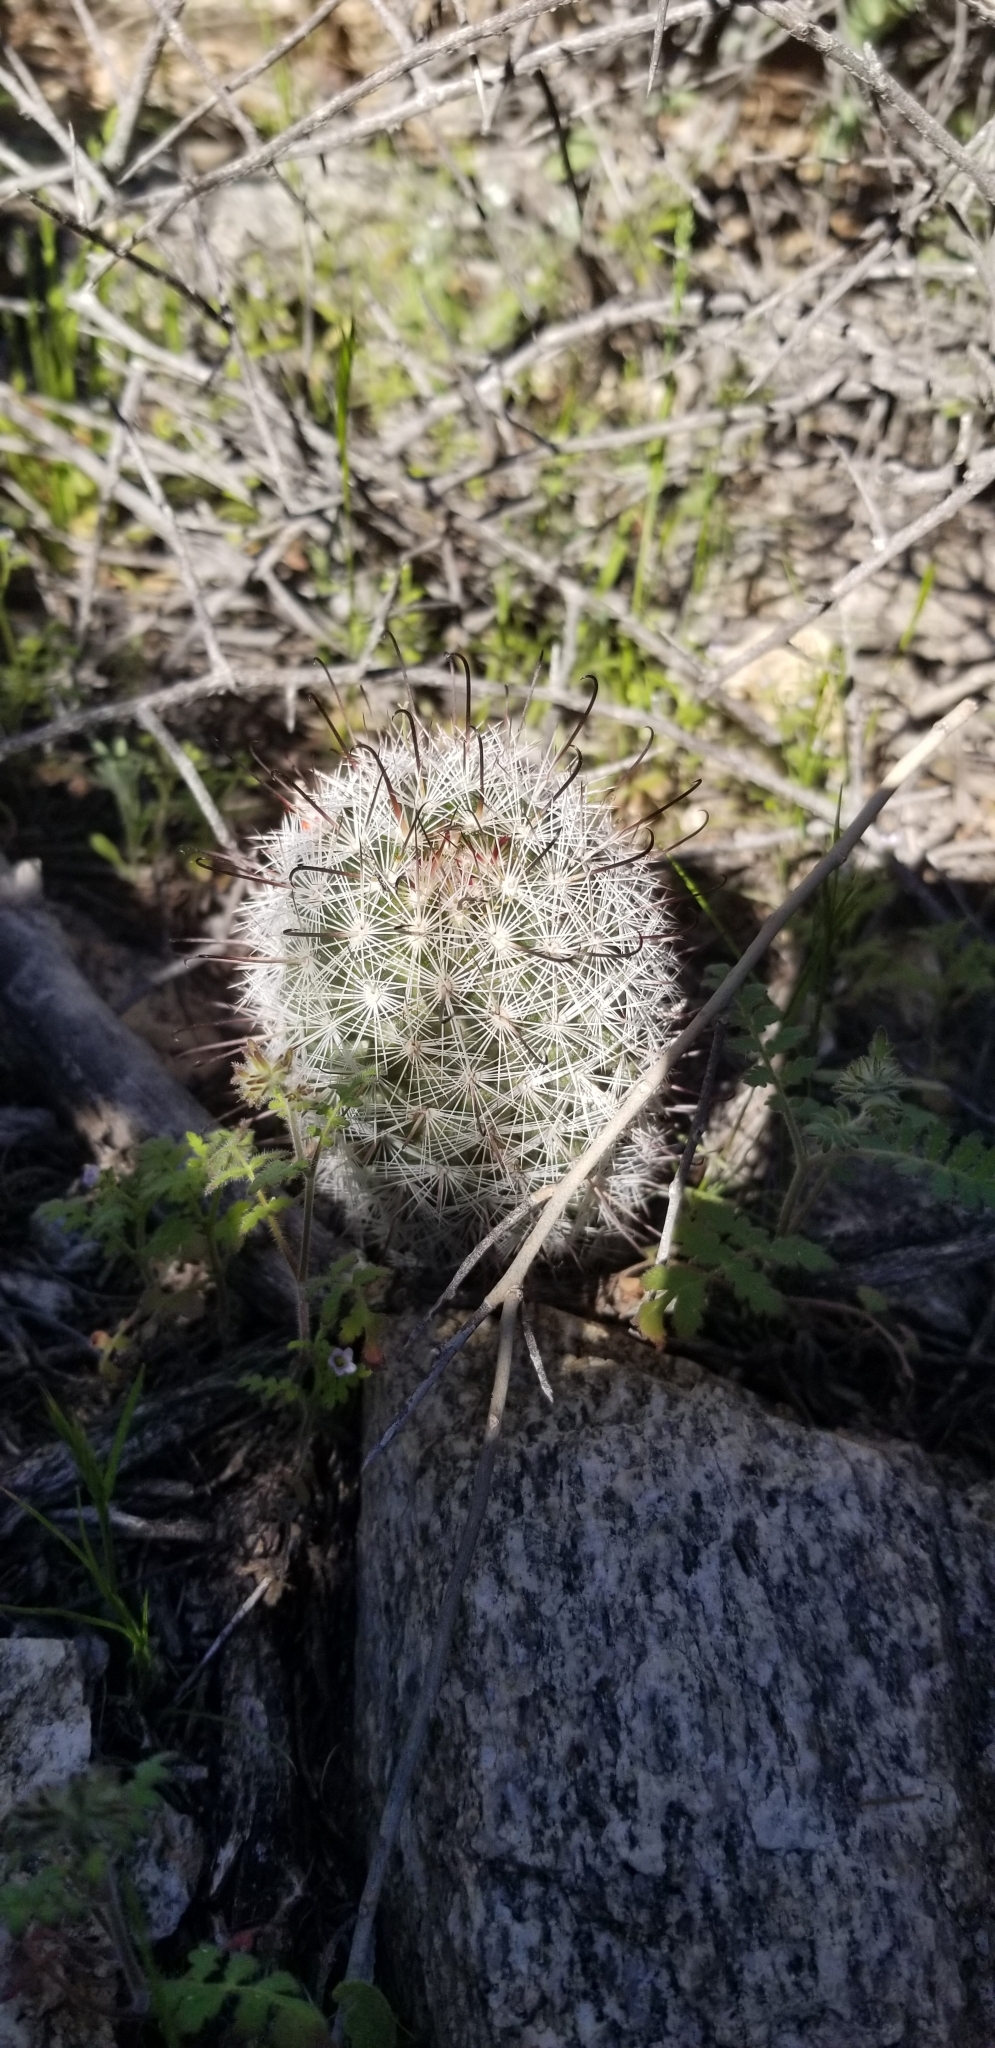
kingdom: Plantae
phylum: Tracheophyta
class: Magnoliopsida
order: Caryophyllales
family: Cactaceae
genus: Cochemiea
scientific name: Cochemiea grahamii
